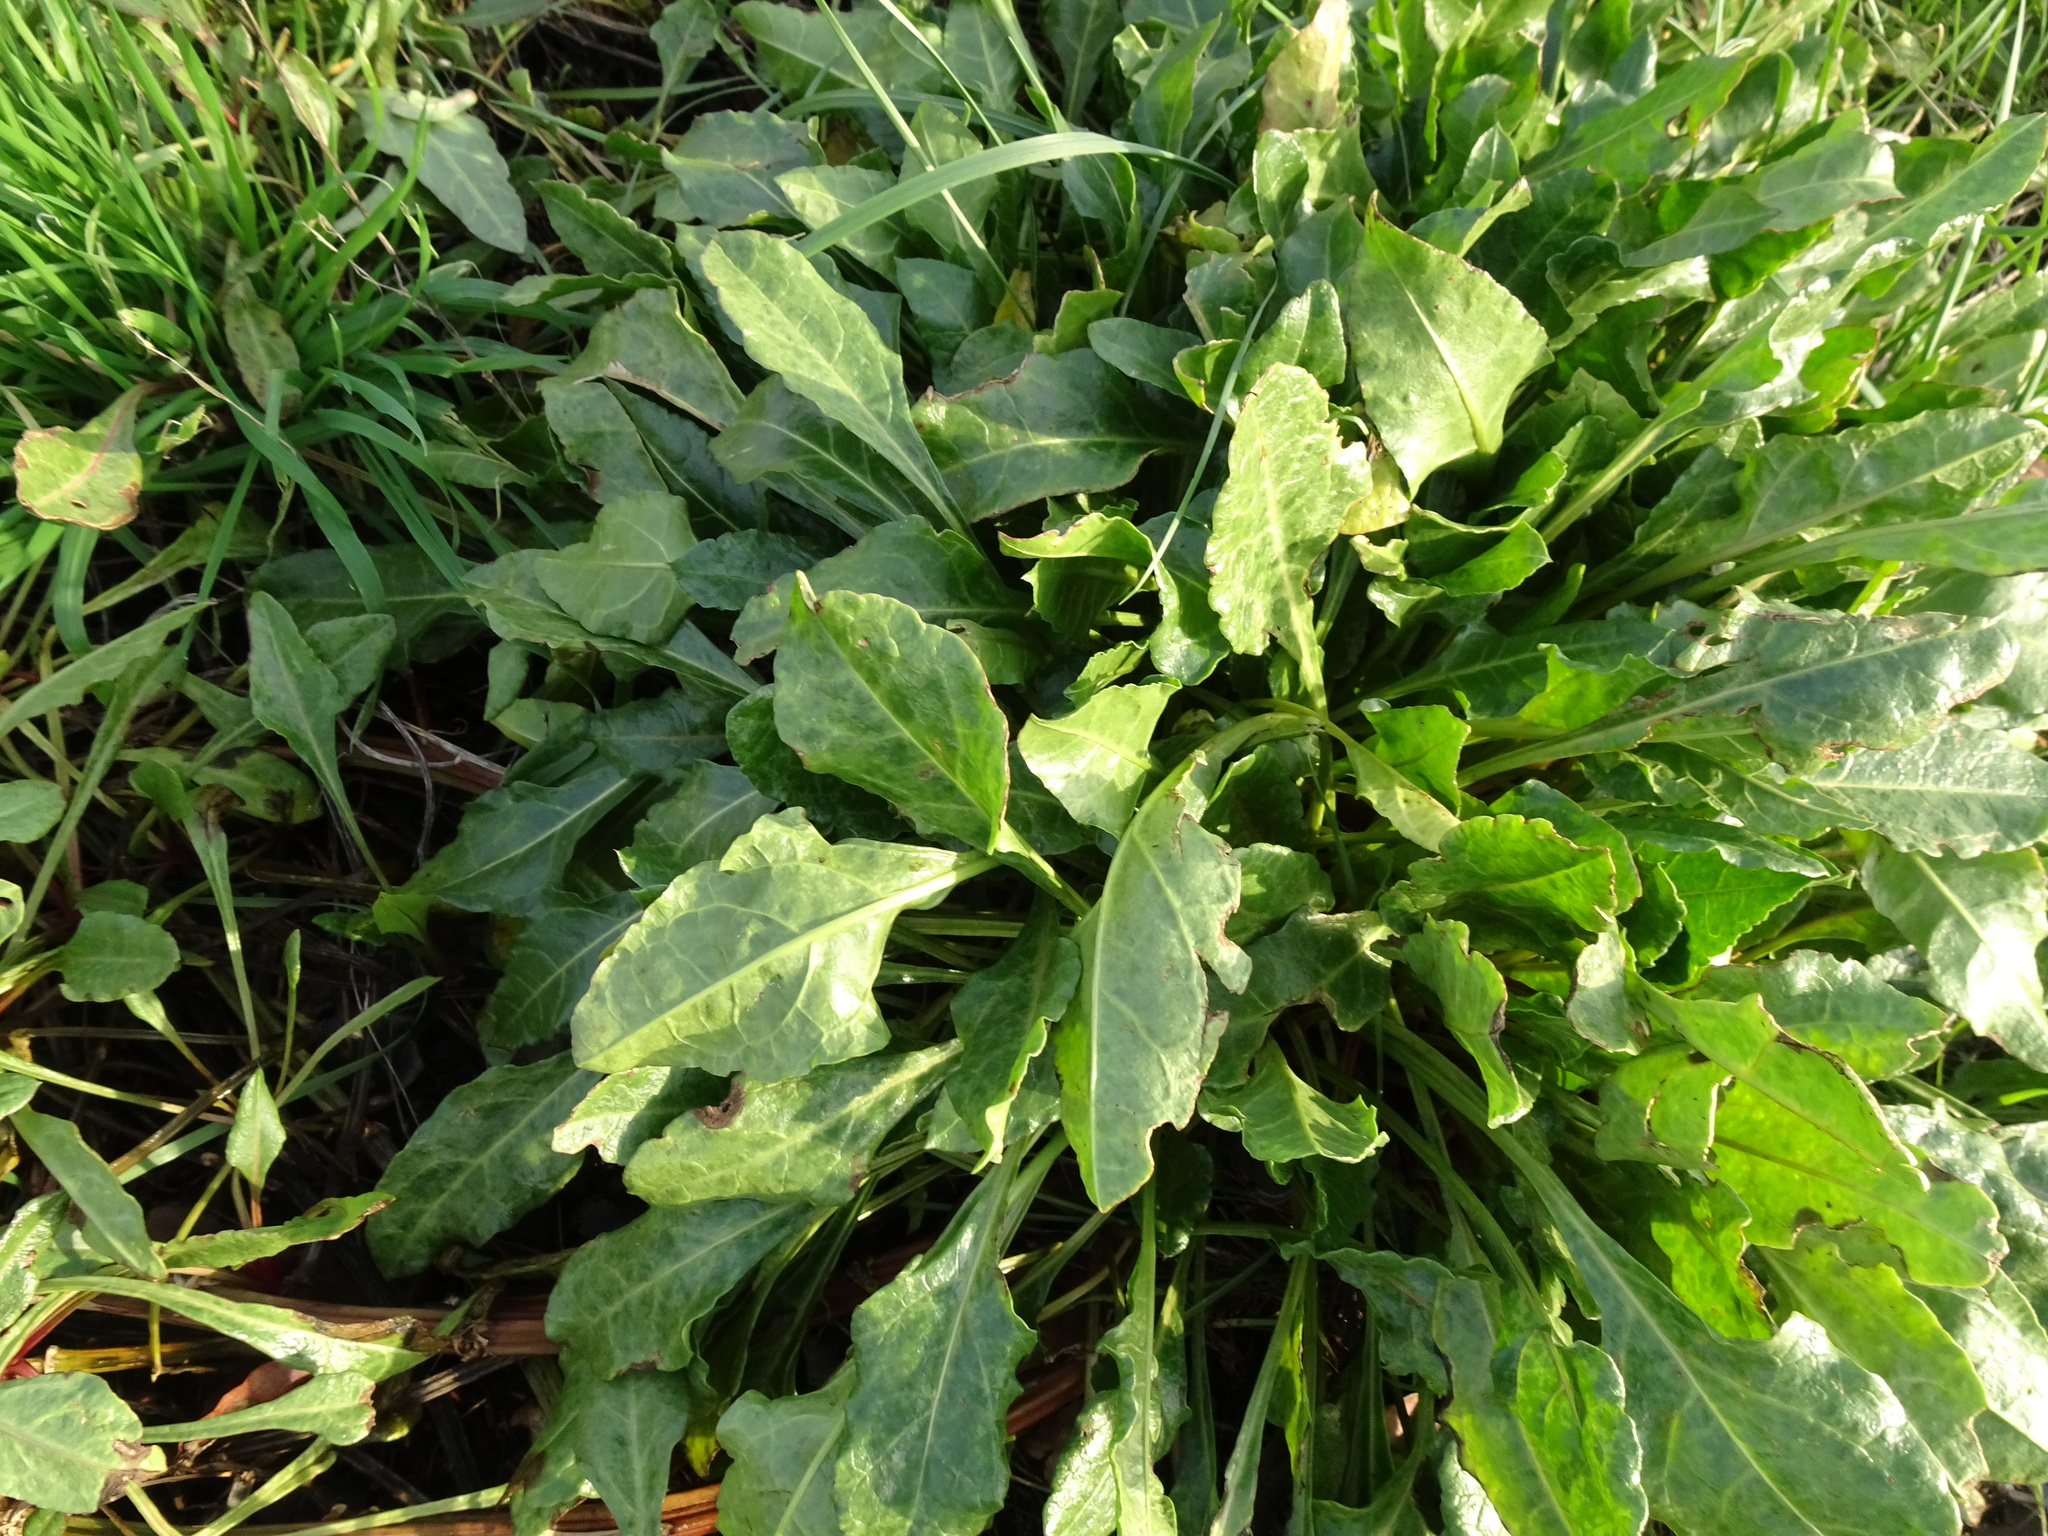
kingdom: Plantae
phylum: Tracheophyta
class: Magnoliopsida
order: Caryophyllales
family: Amaranthaceae
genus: Beta
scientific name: Beta vulgaris
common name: Beet
